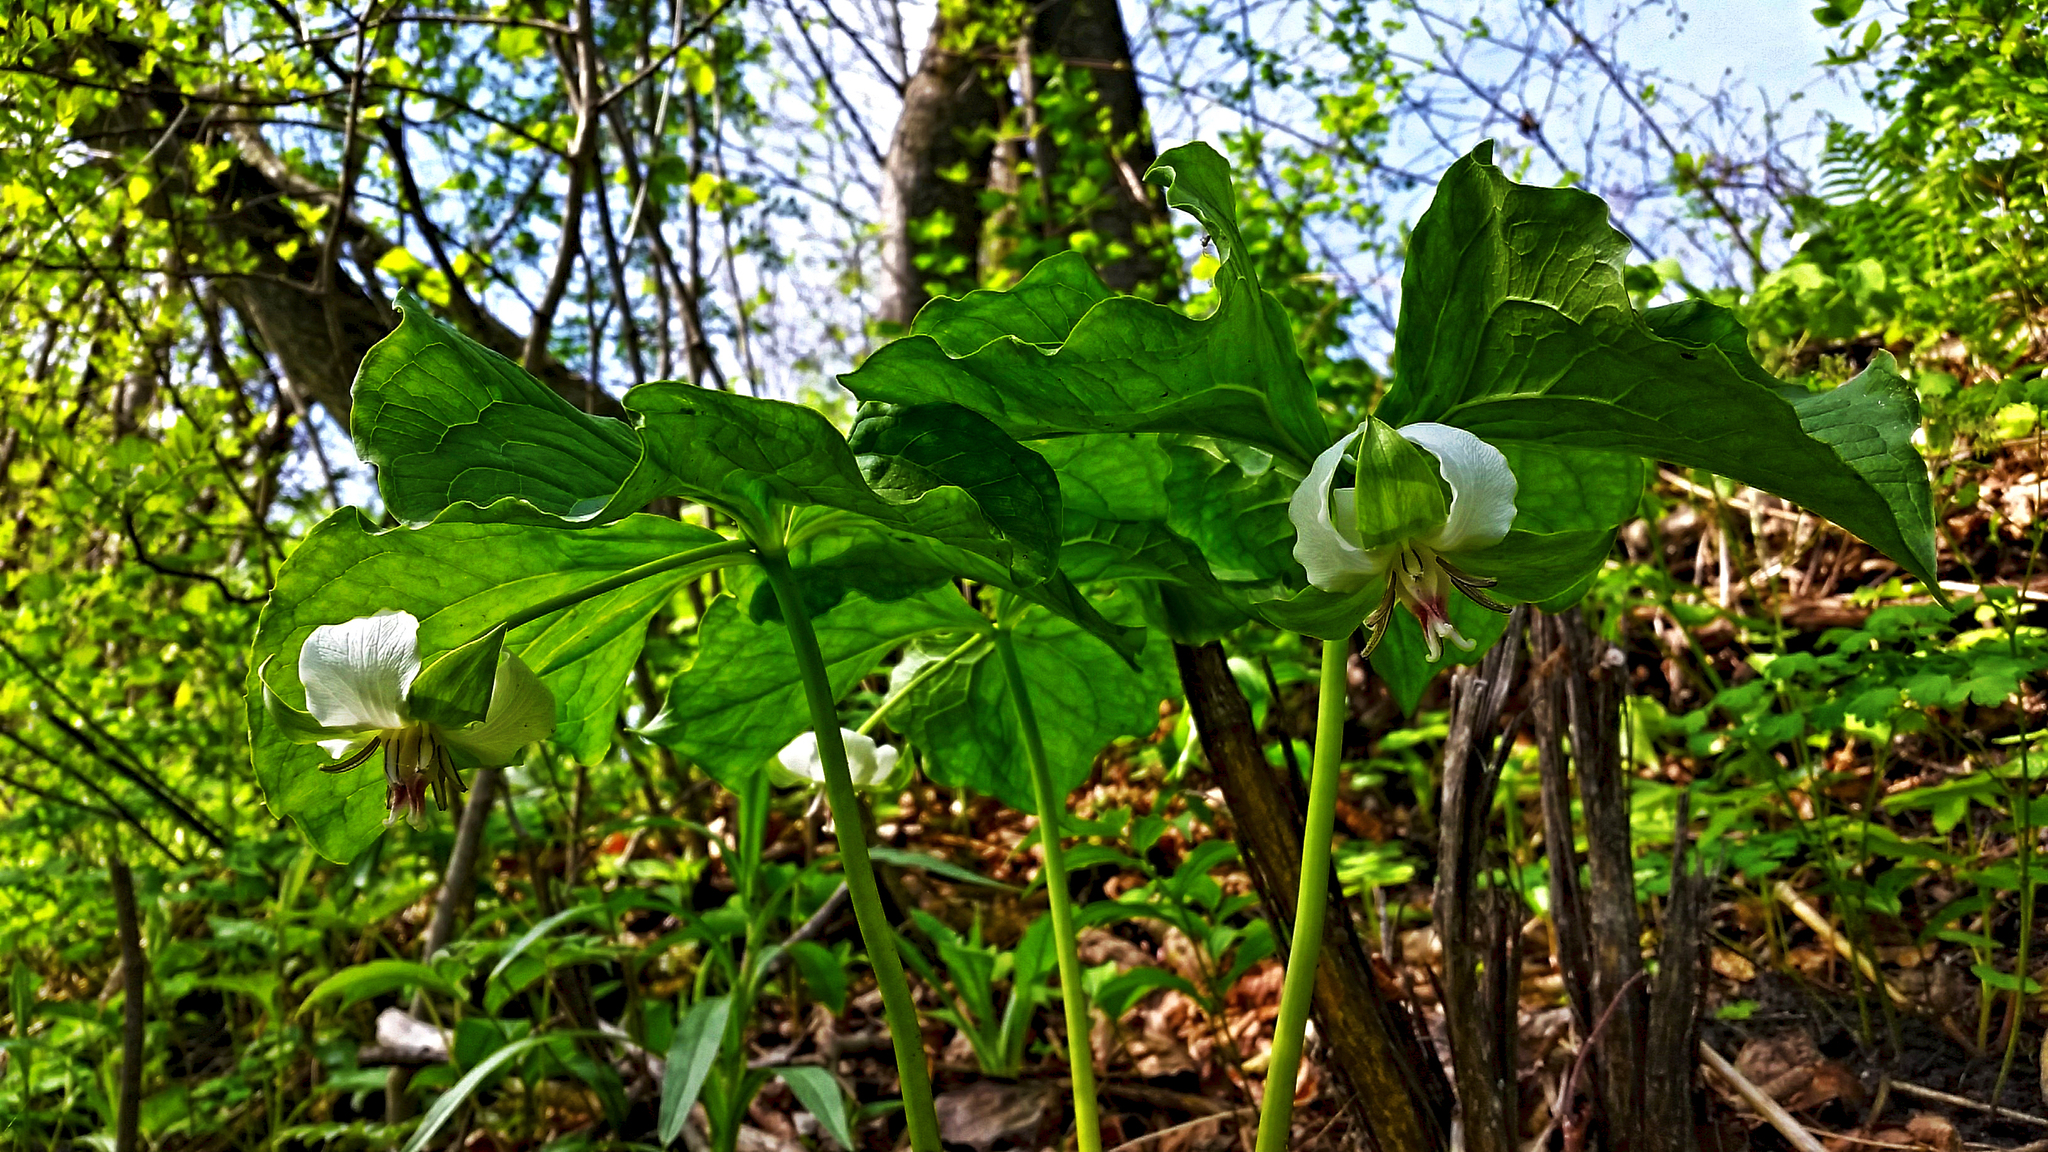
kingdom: Plantae
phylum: Tracheophyta
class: Liliopsida
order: Liliales
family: Melanthiaceae
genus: Trillium
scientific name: Trillium cernuum
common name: Nodding trillium
